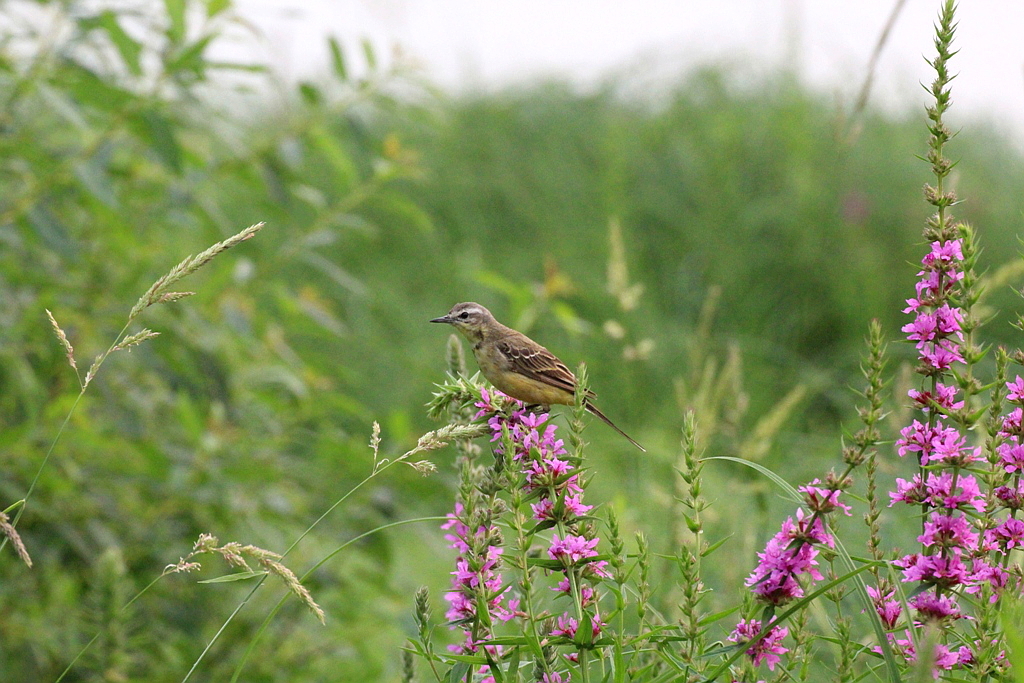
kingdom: Animalia
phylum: Chordata
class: Aves
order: Passeriformes
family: Motacillidae
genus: Motacilla
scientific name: Motacilla flava
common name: Western yellow wagtail
